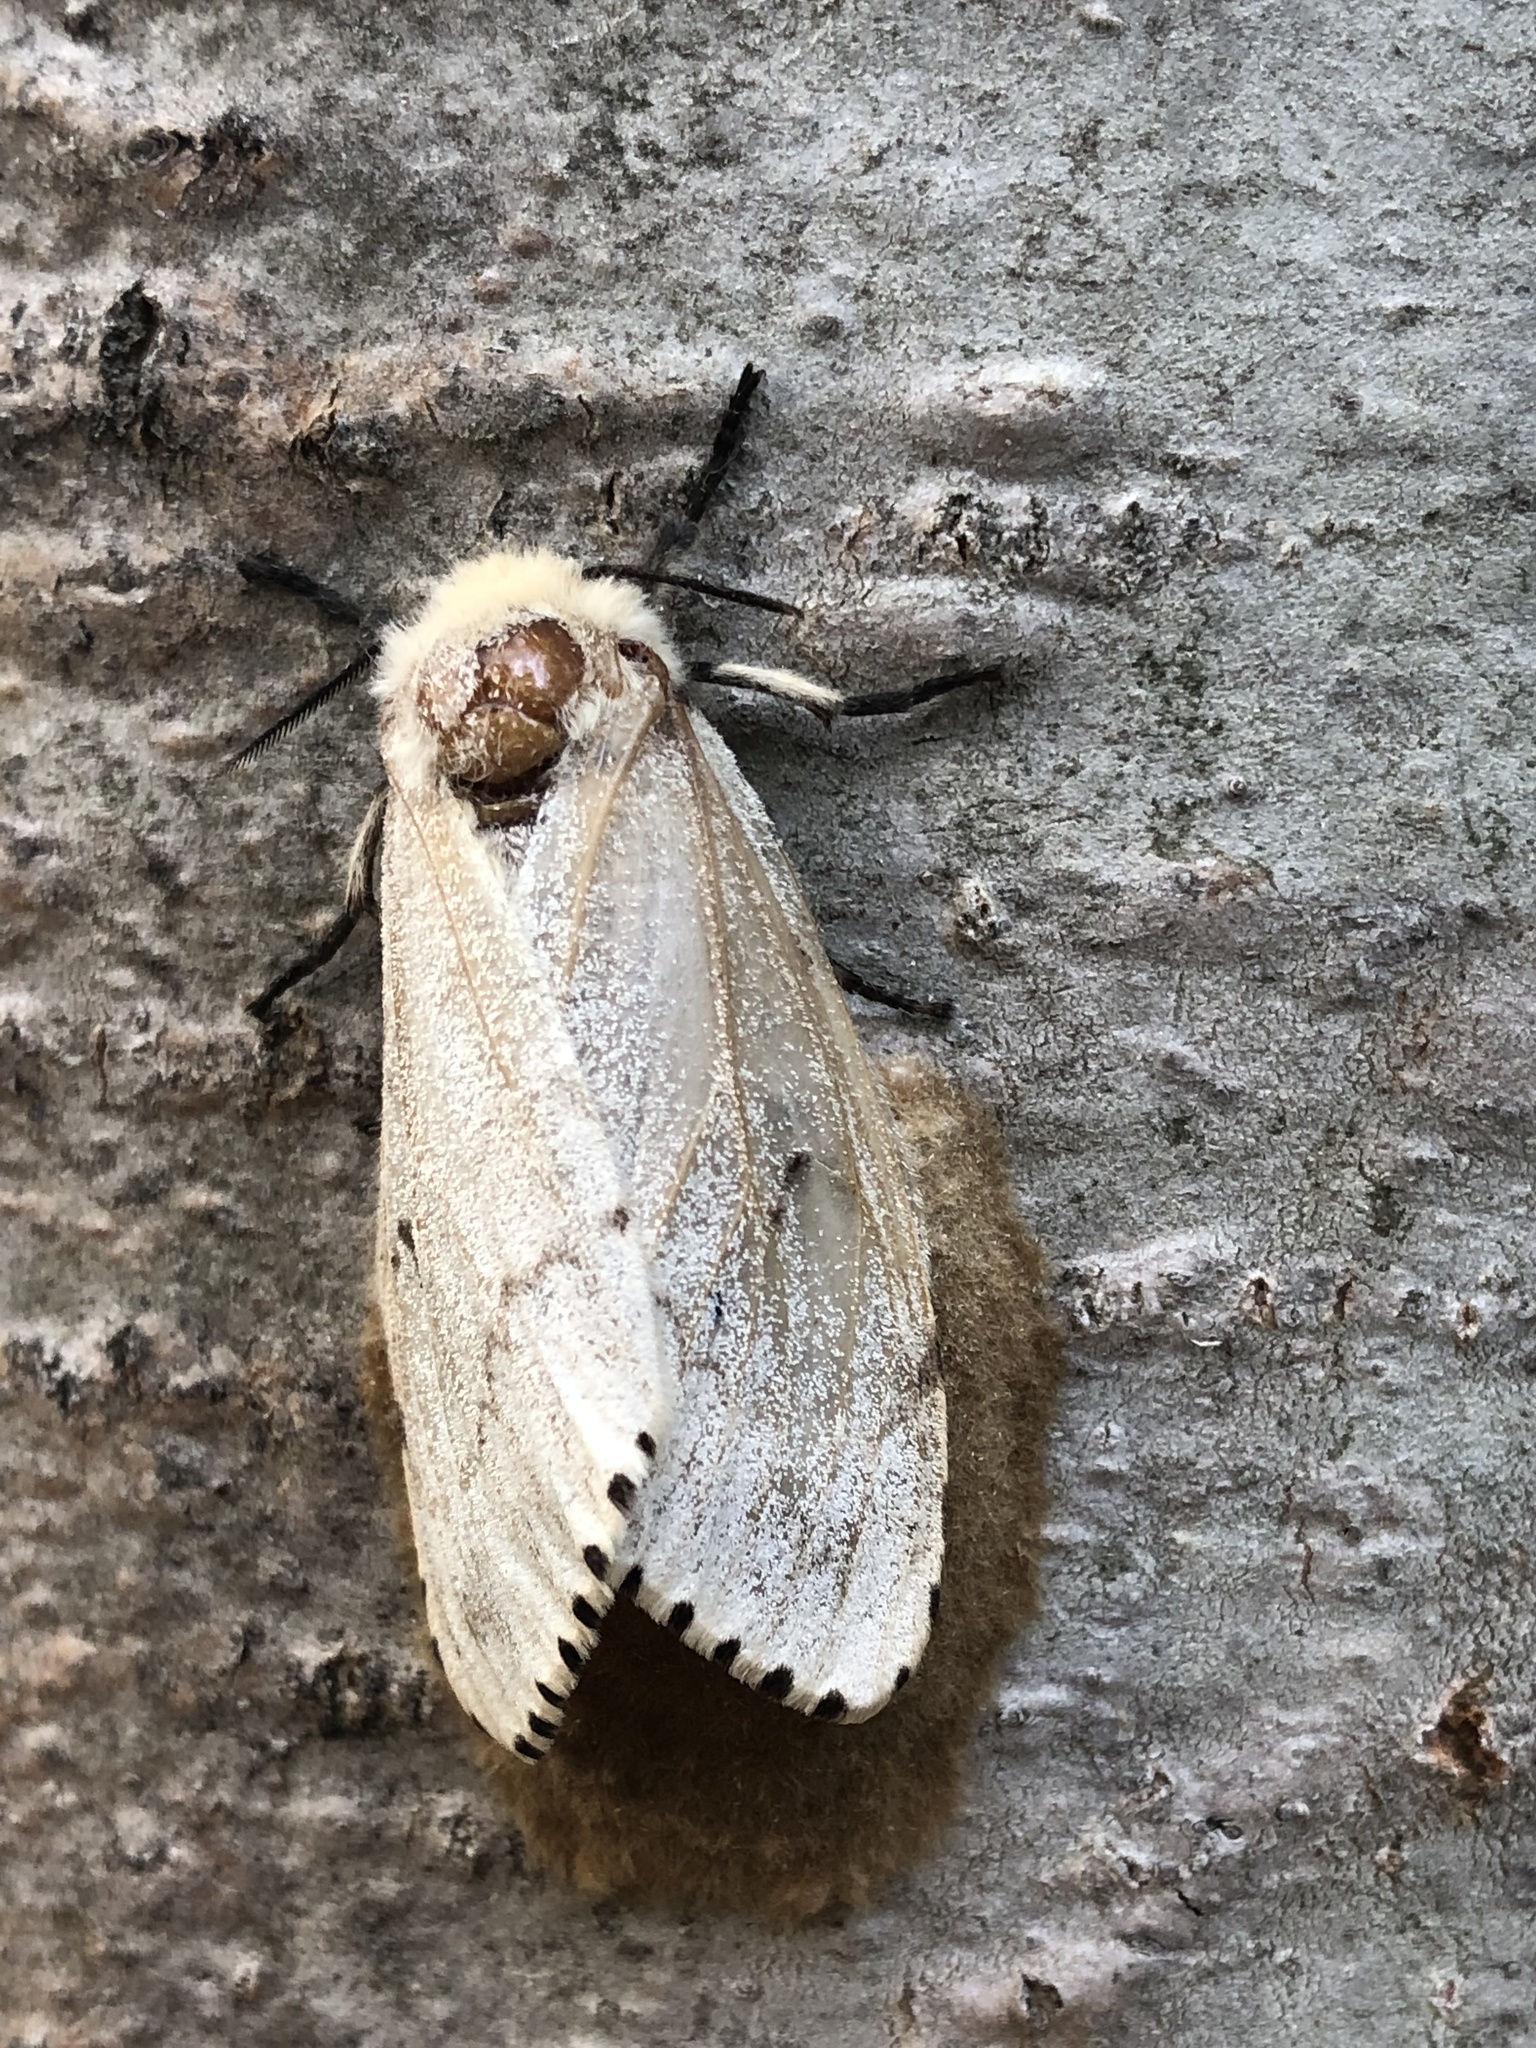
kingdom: Animalia
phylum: Arthropoda
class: Insecta
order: Lepidoptera
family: Erebidae
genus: Lymantria
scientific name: Lymantria dispar
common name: Gypsy moth
